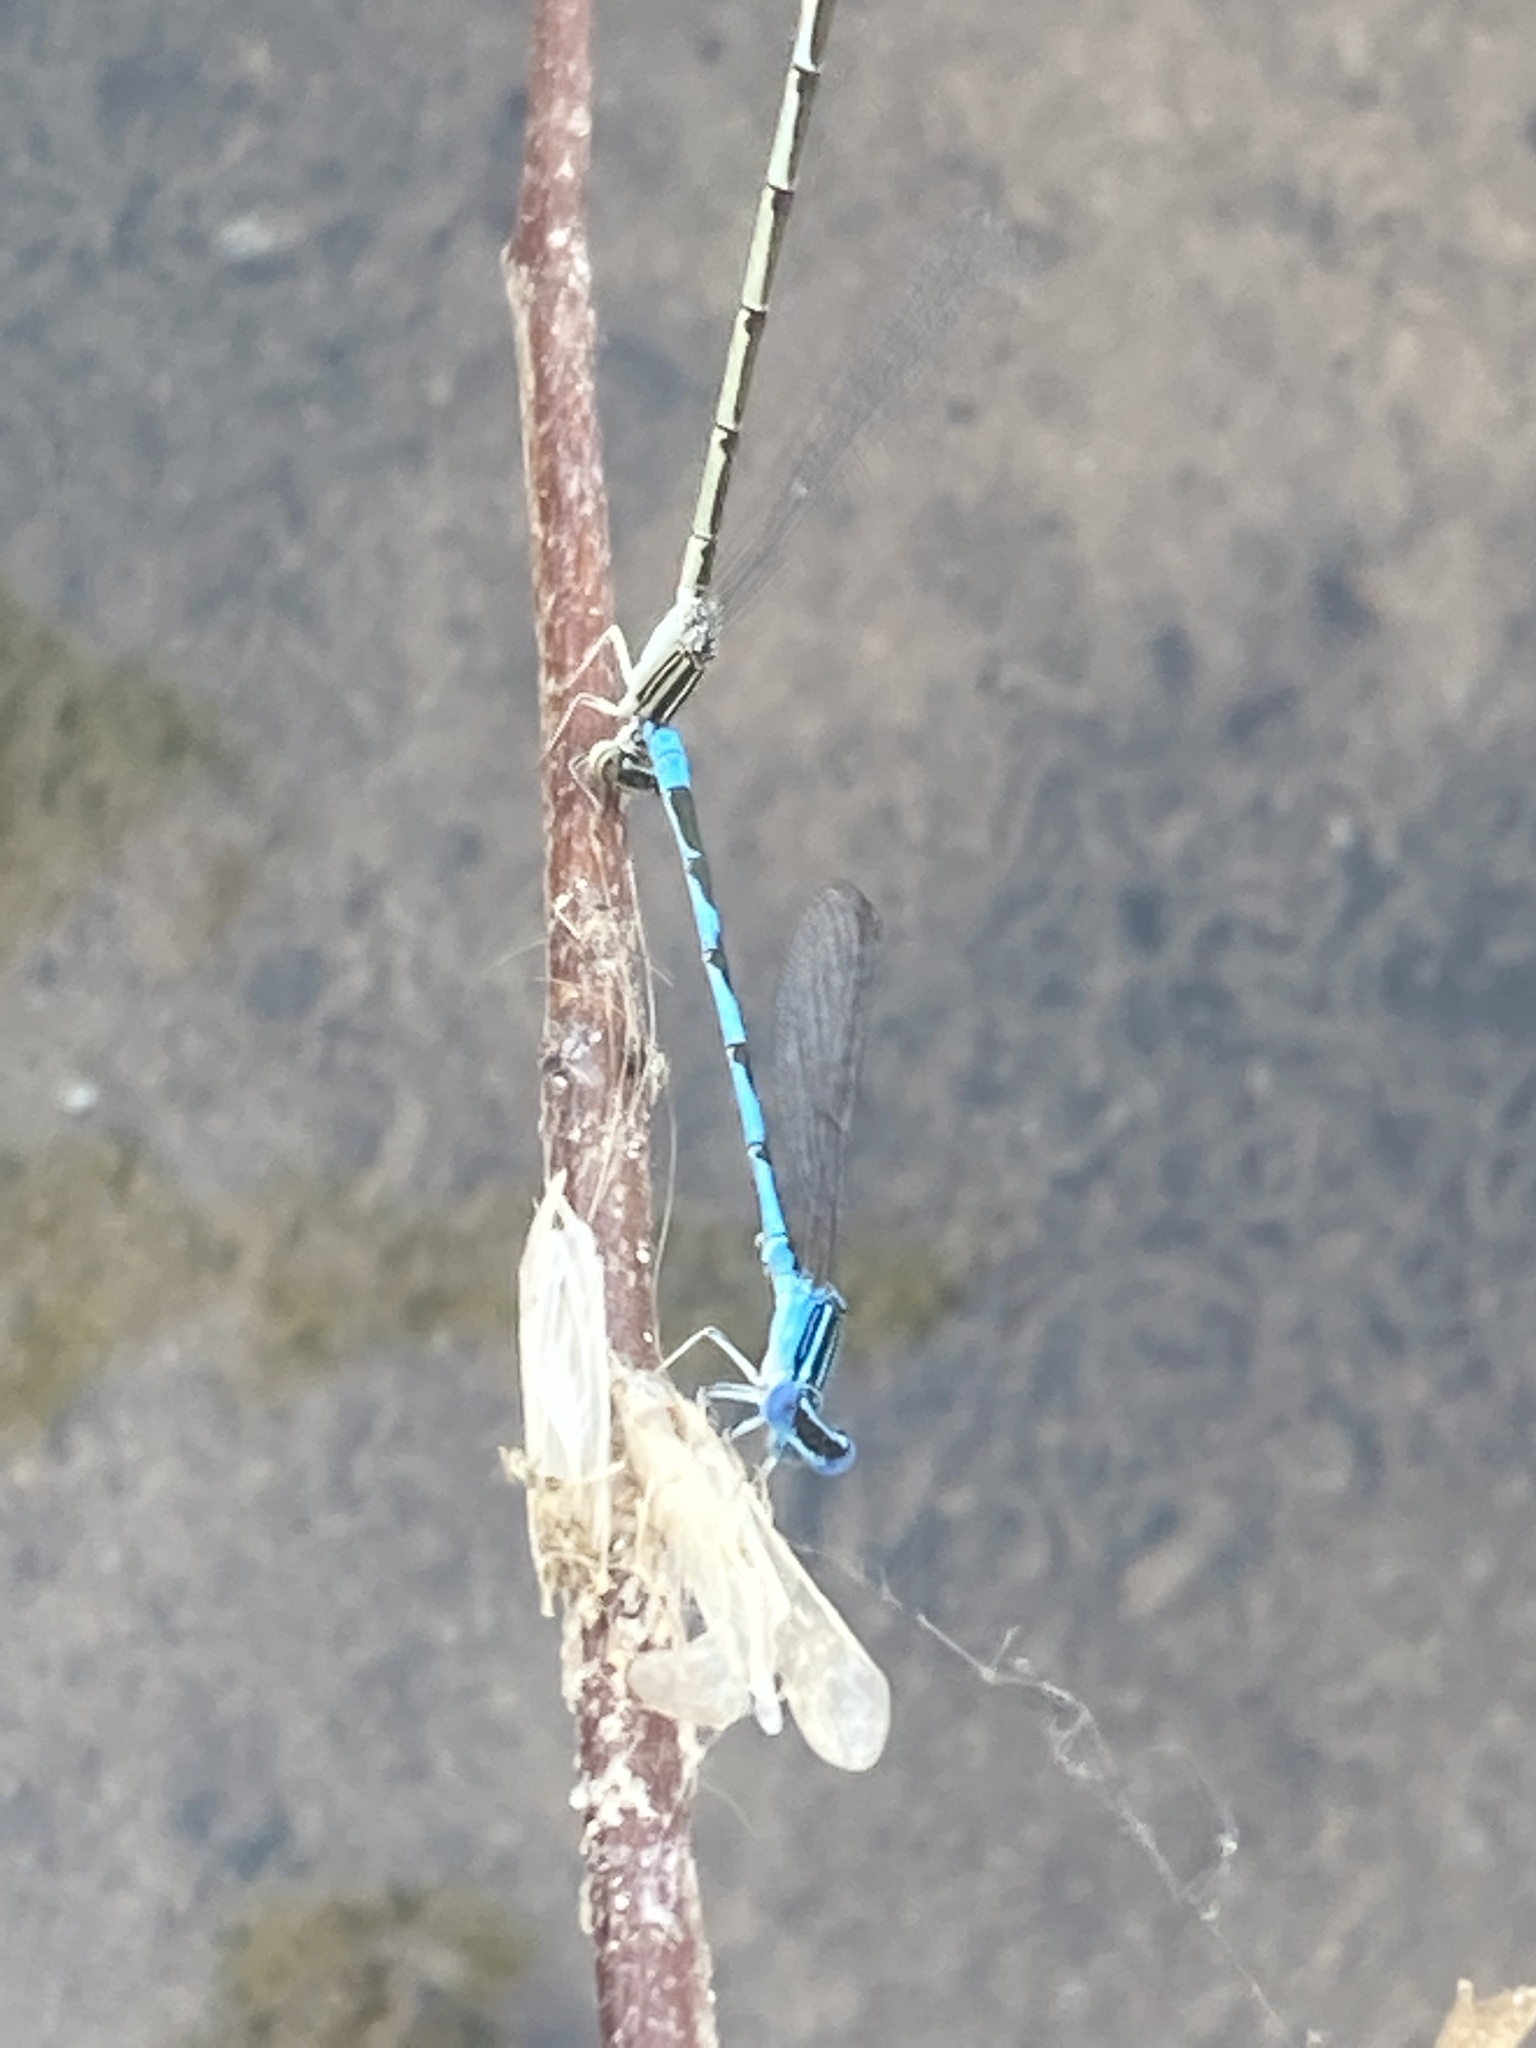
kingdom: Animalia
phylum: Arthropoda
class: Insecta
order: Odonata
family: Coenagrionidae
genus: Enallagma
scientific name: Enallagma basidens
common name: Double-striped bluet
